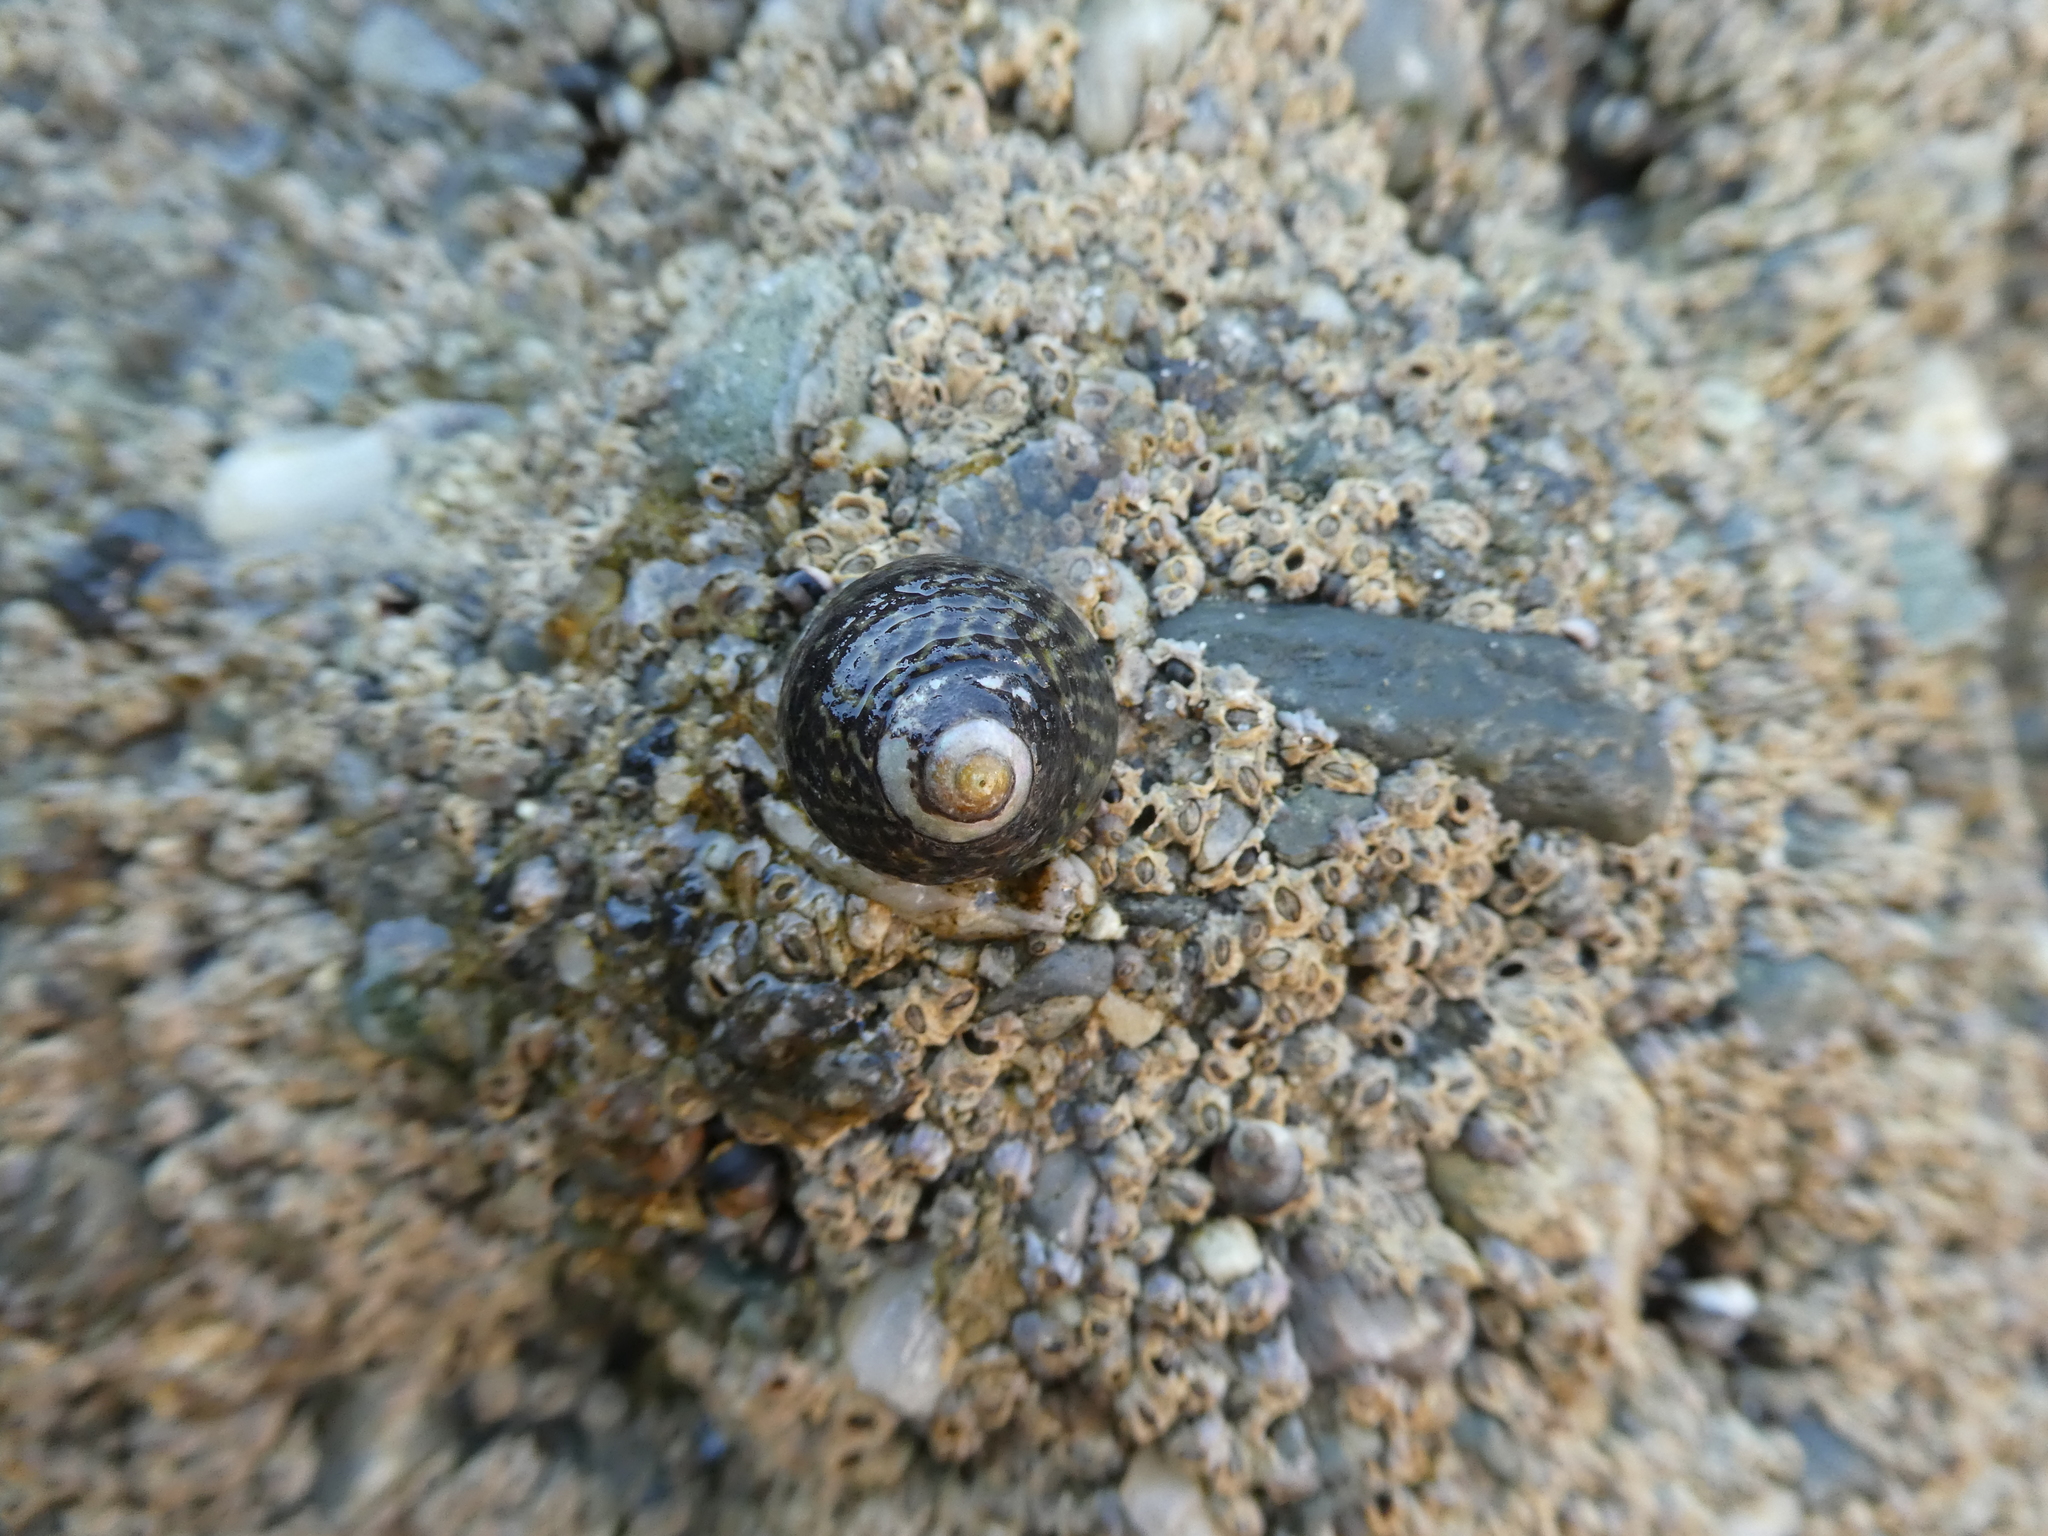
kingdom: Animalia
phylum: Mollusca
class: Gastropoda
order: Trochida
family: Tegulidae
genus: Tegula
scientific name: Tegula gallina
